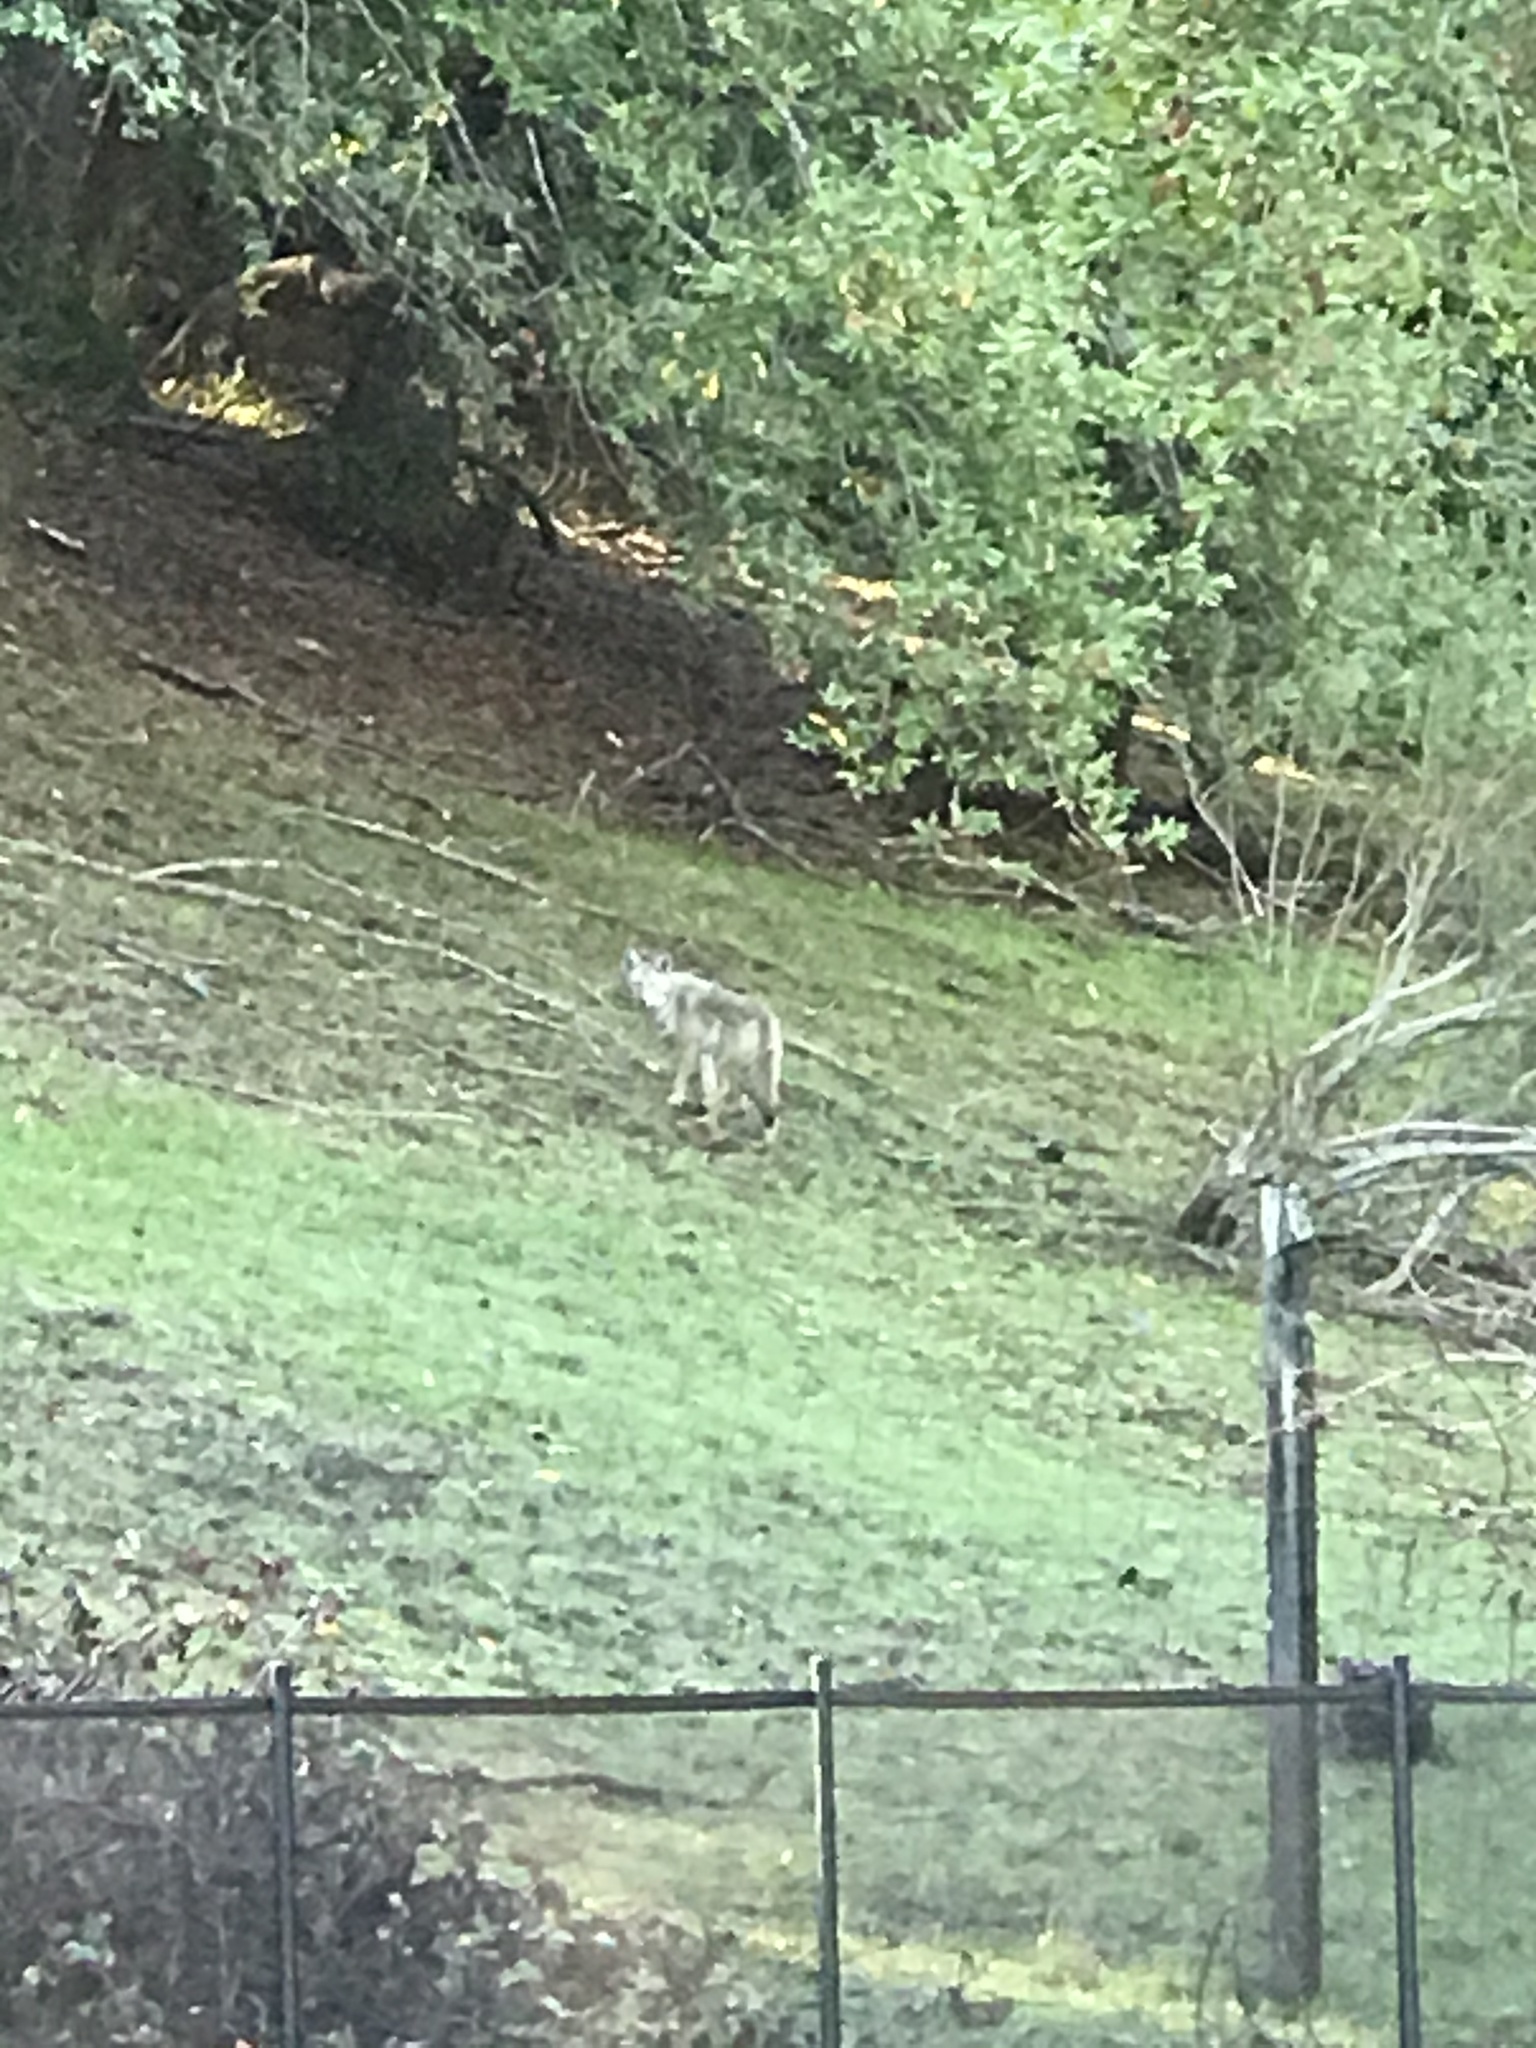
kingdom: Animalia
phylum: Chordata
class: Mammalia
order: Carnivora
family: Canidae
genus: Canis
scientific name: Canis latrans
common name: Coyote
